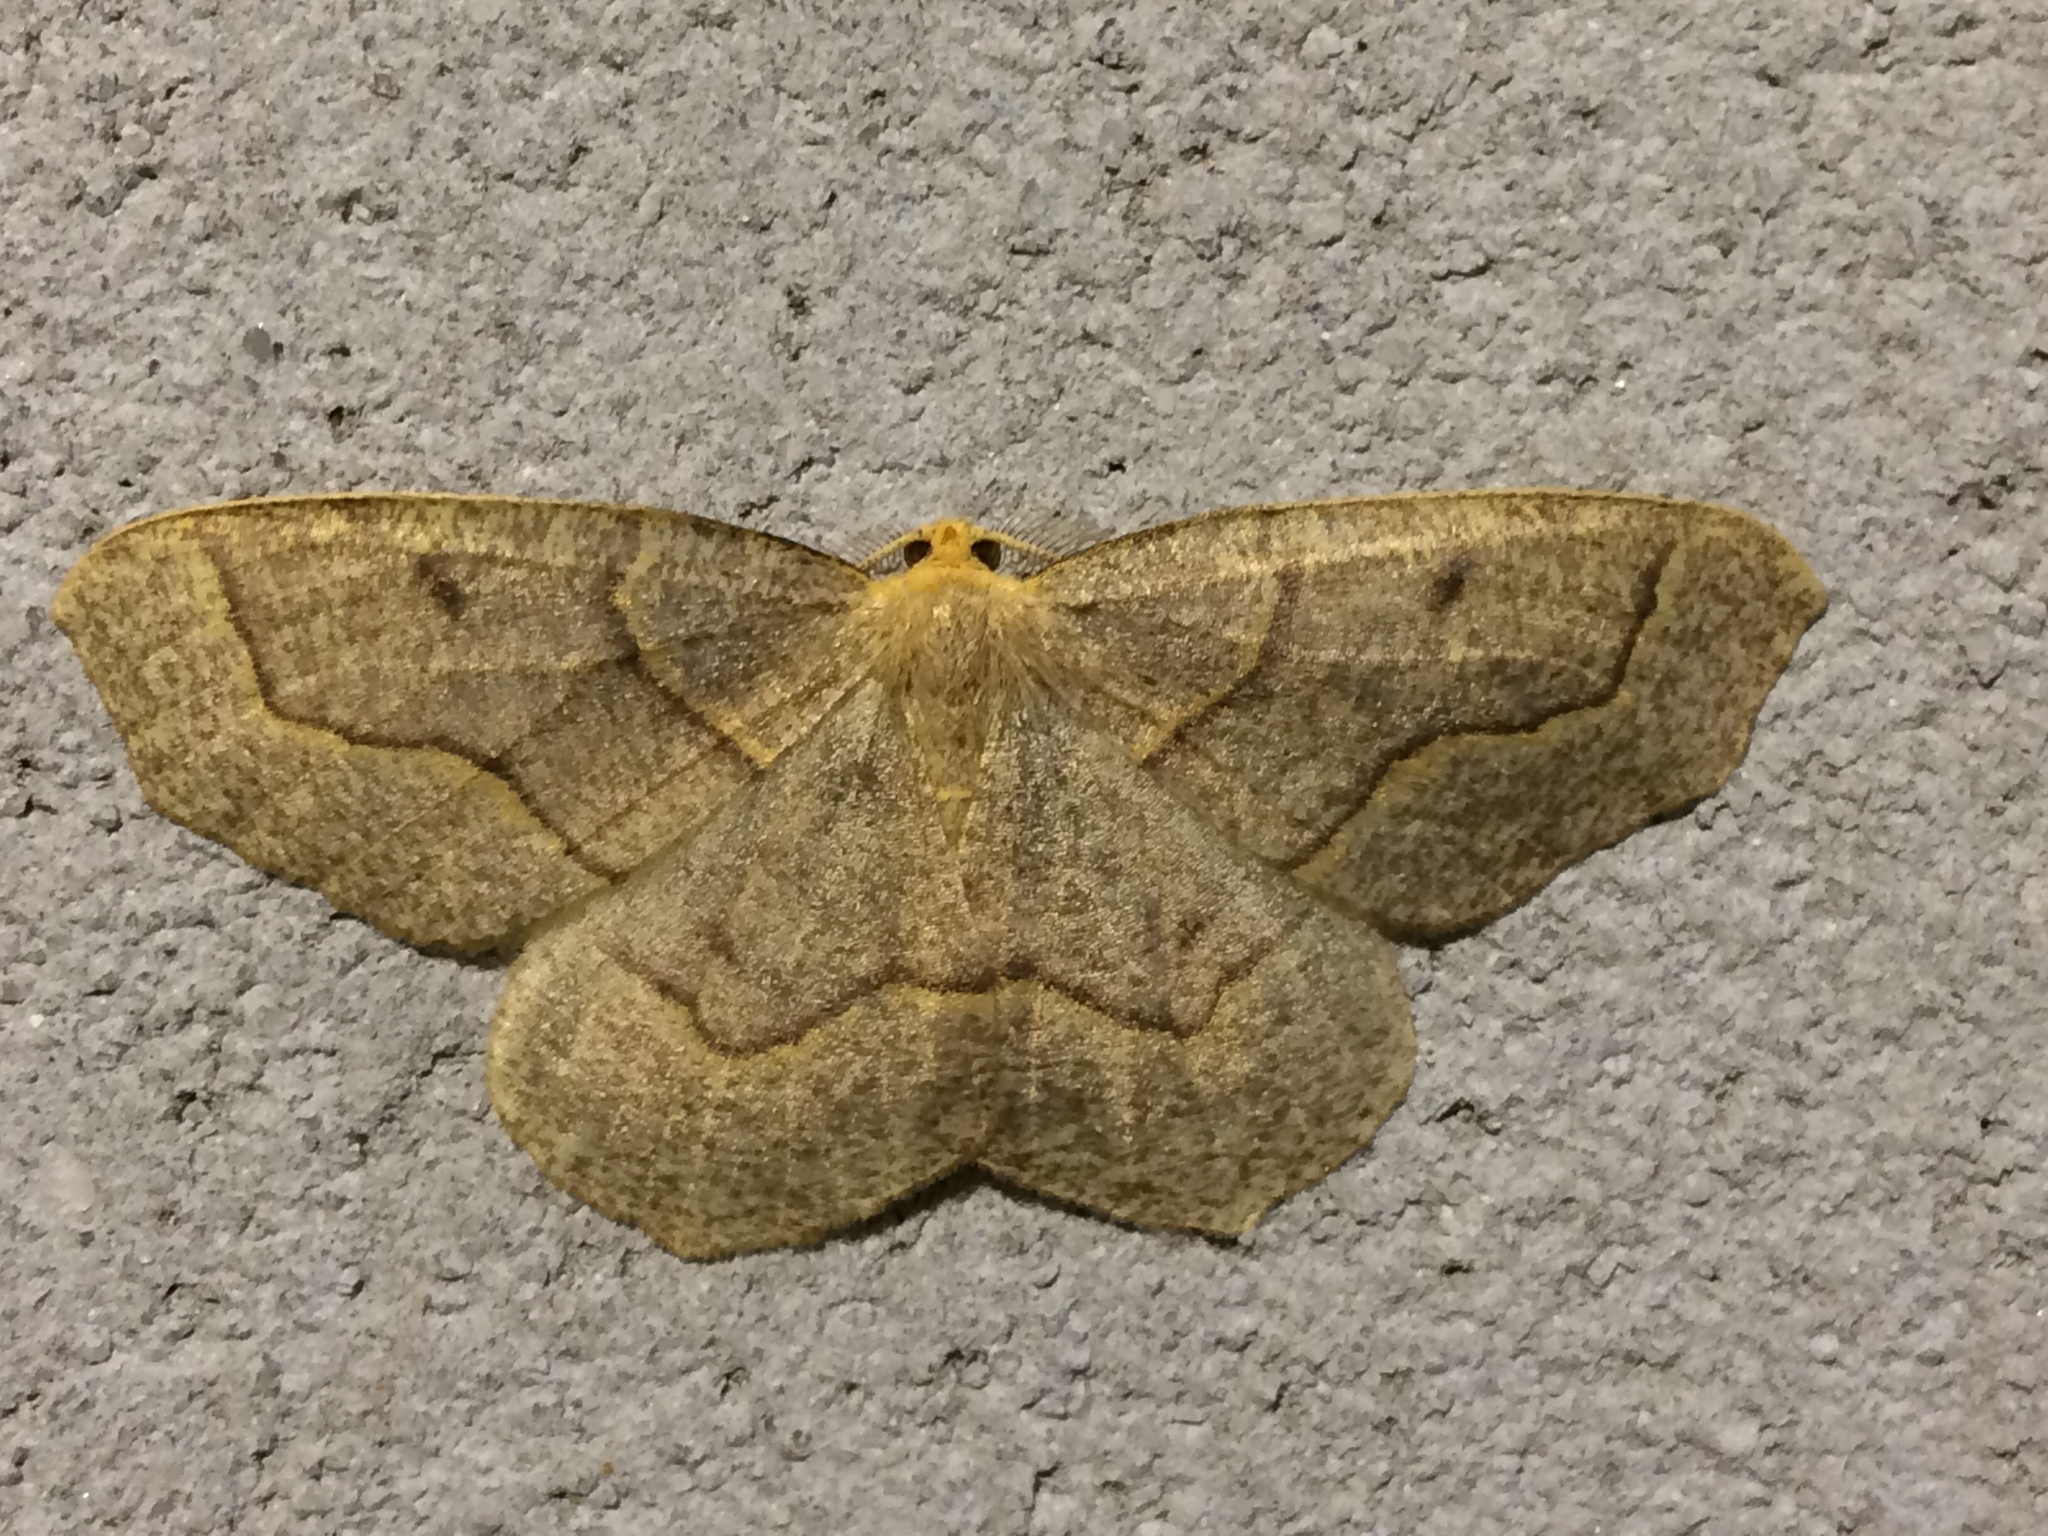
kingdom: Animalia
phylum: Arthropoda
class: Insecta
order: Lepidoptera
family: Geometridae
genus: Lambdina
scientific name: Lambdina fiscellaria
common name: Hemlock looper
